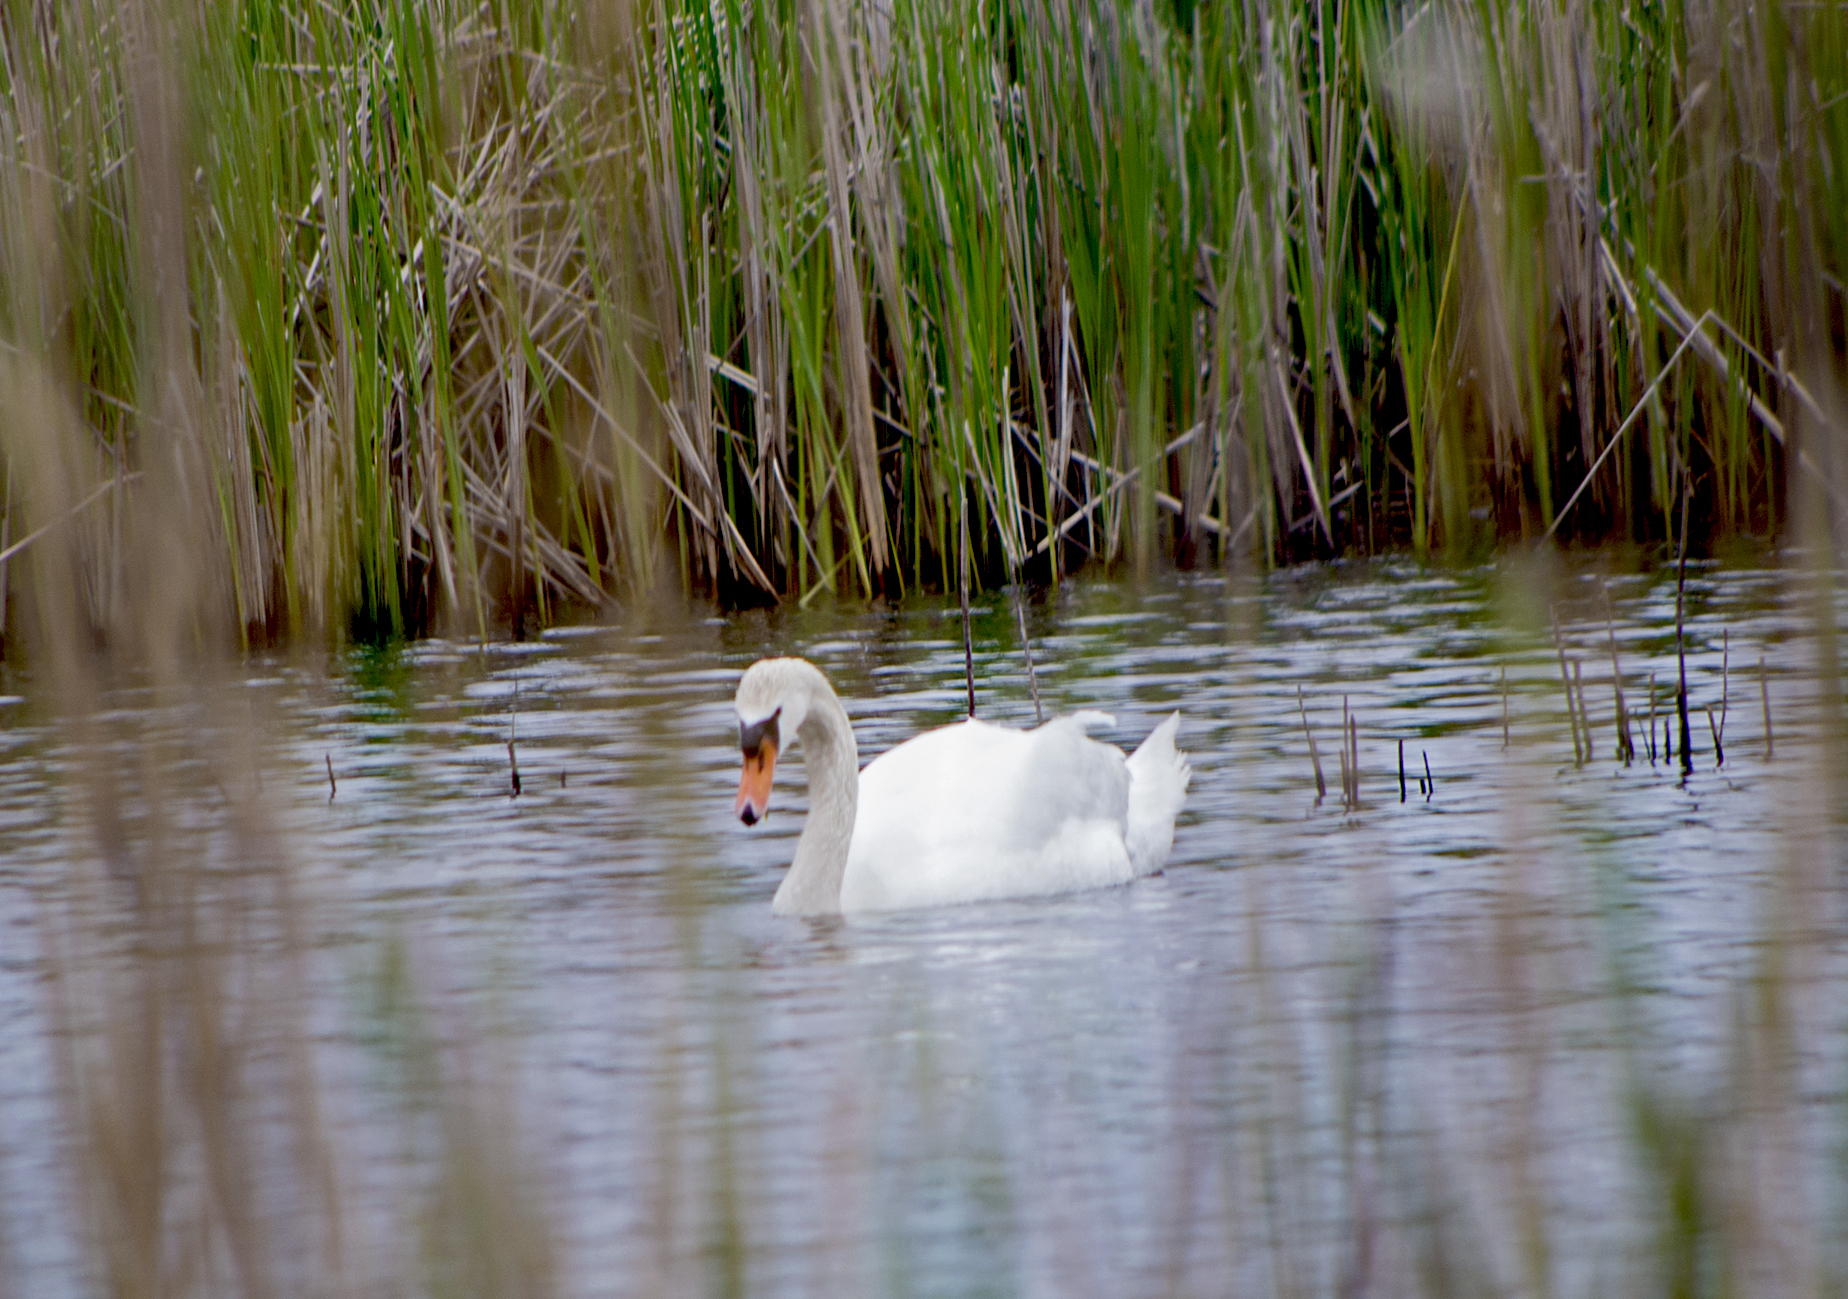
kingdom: Animalia
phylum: Chordata
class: Aves
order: Anseriformes
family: Anatidae
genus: Cygnus
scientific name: Cygnus olor
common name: Mute swan
